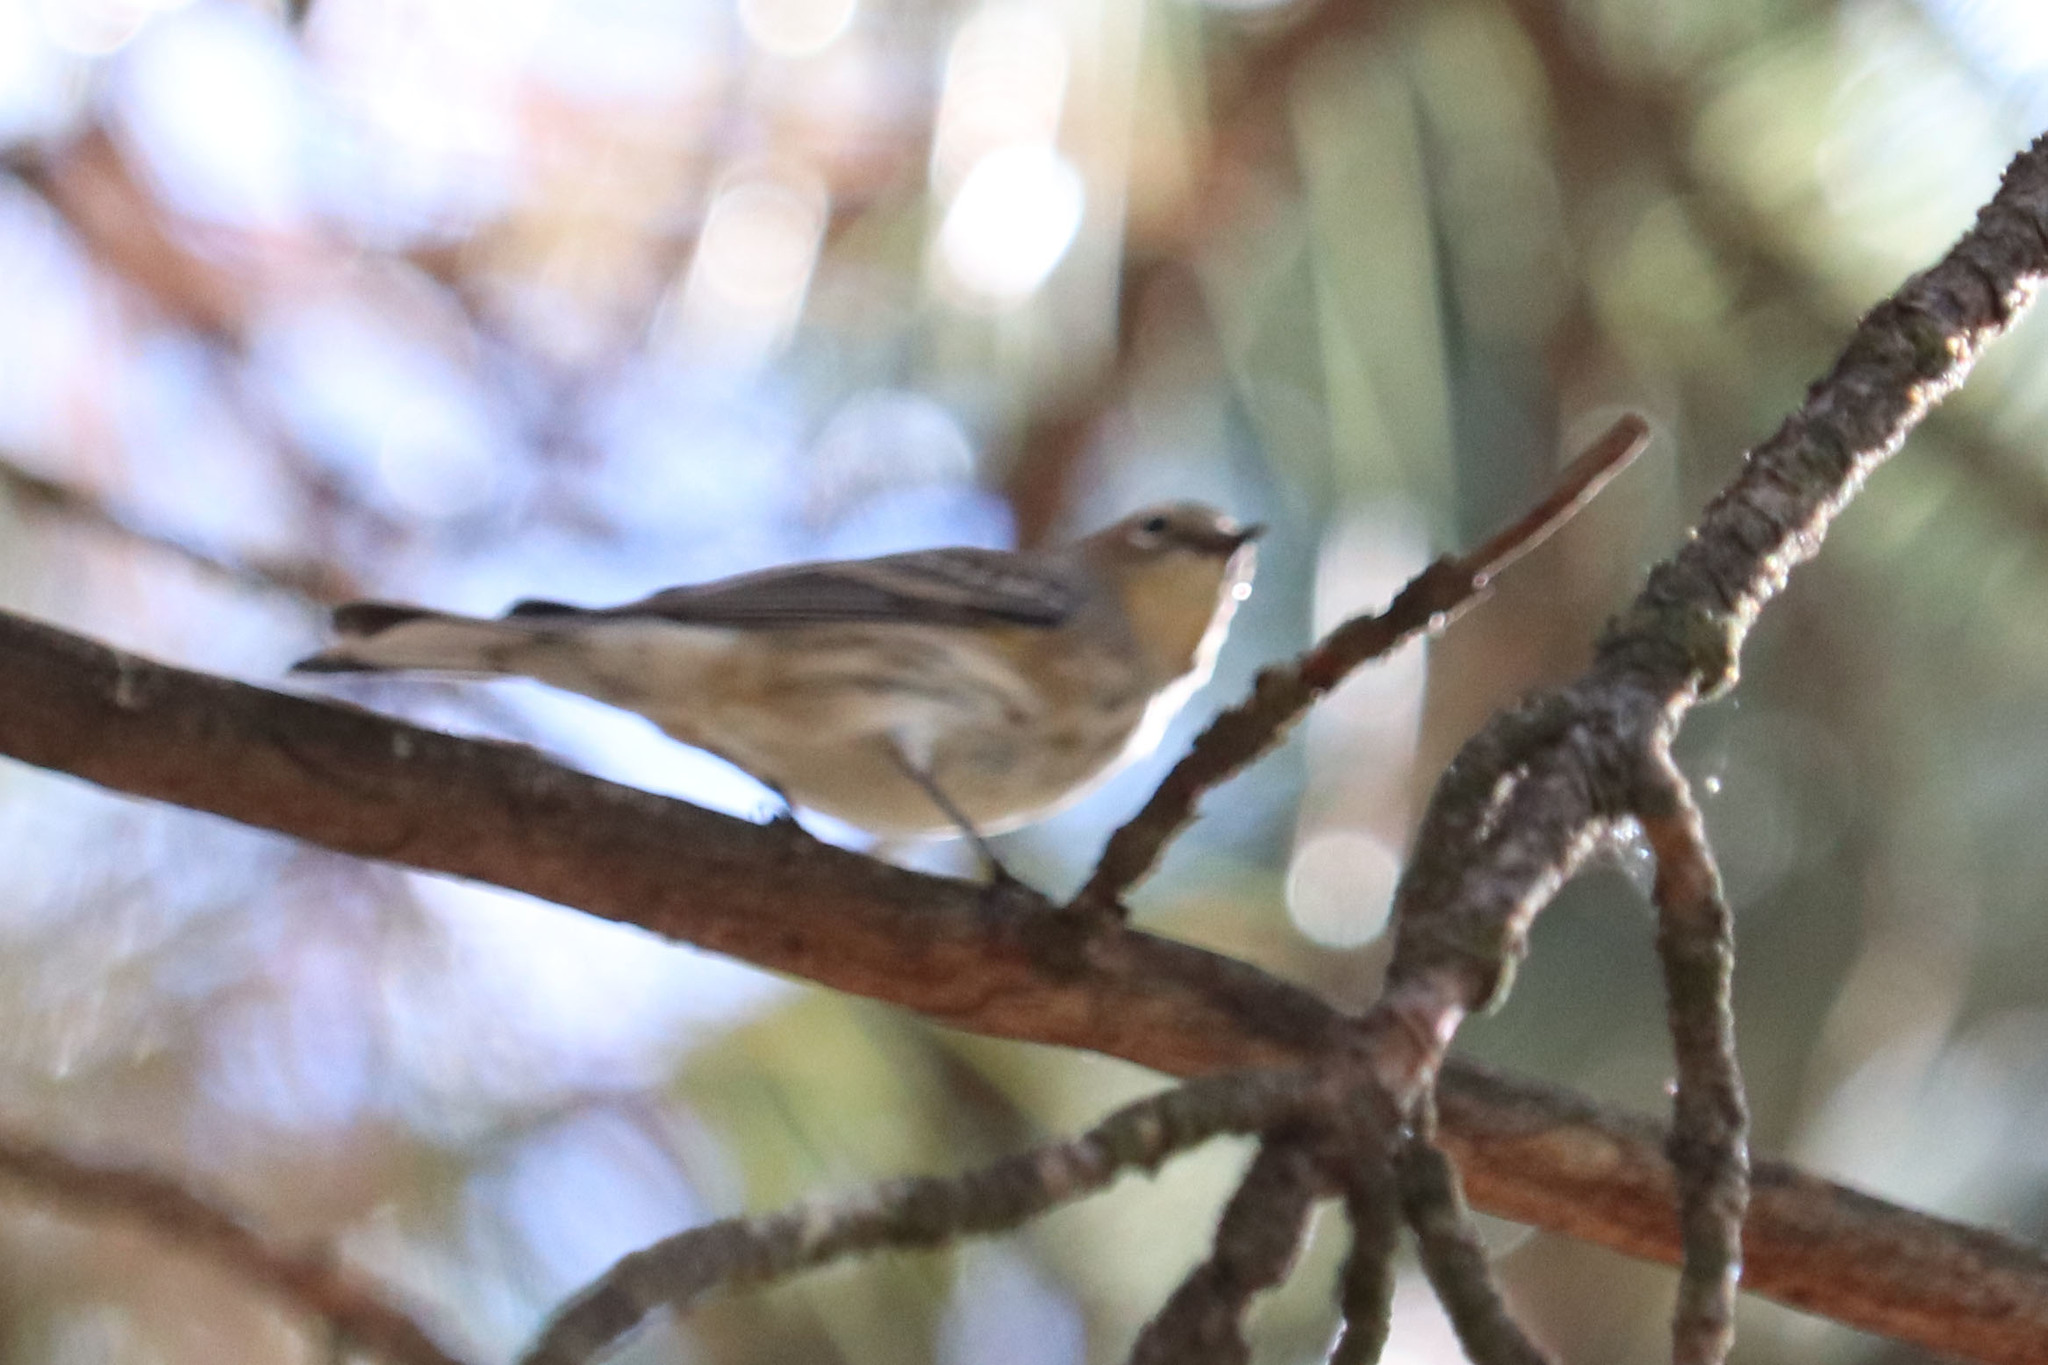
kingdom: Animalia
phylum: Chordata
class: Aves
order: Passeriformes
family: Parulidae
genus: Setophaga
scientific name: Setophaga coronata
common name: Myrtle warbler
